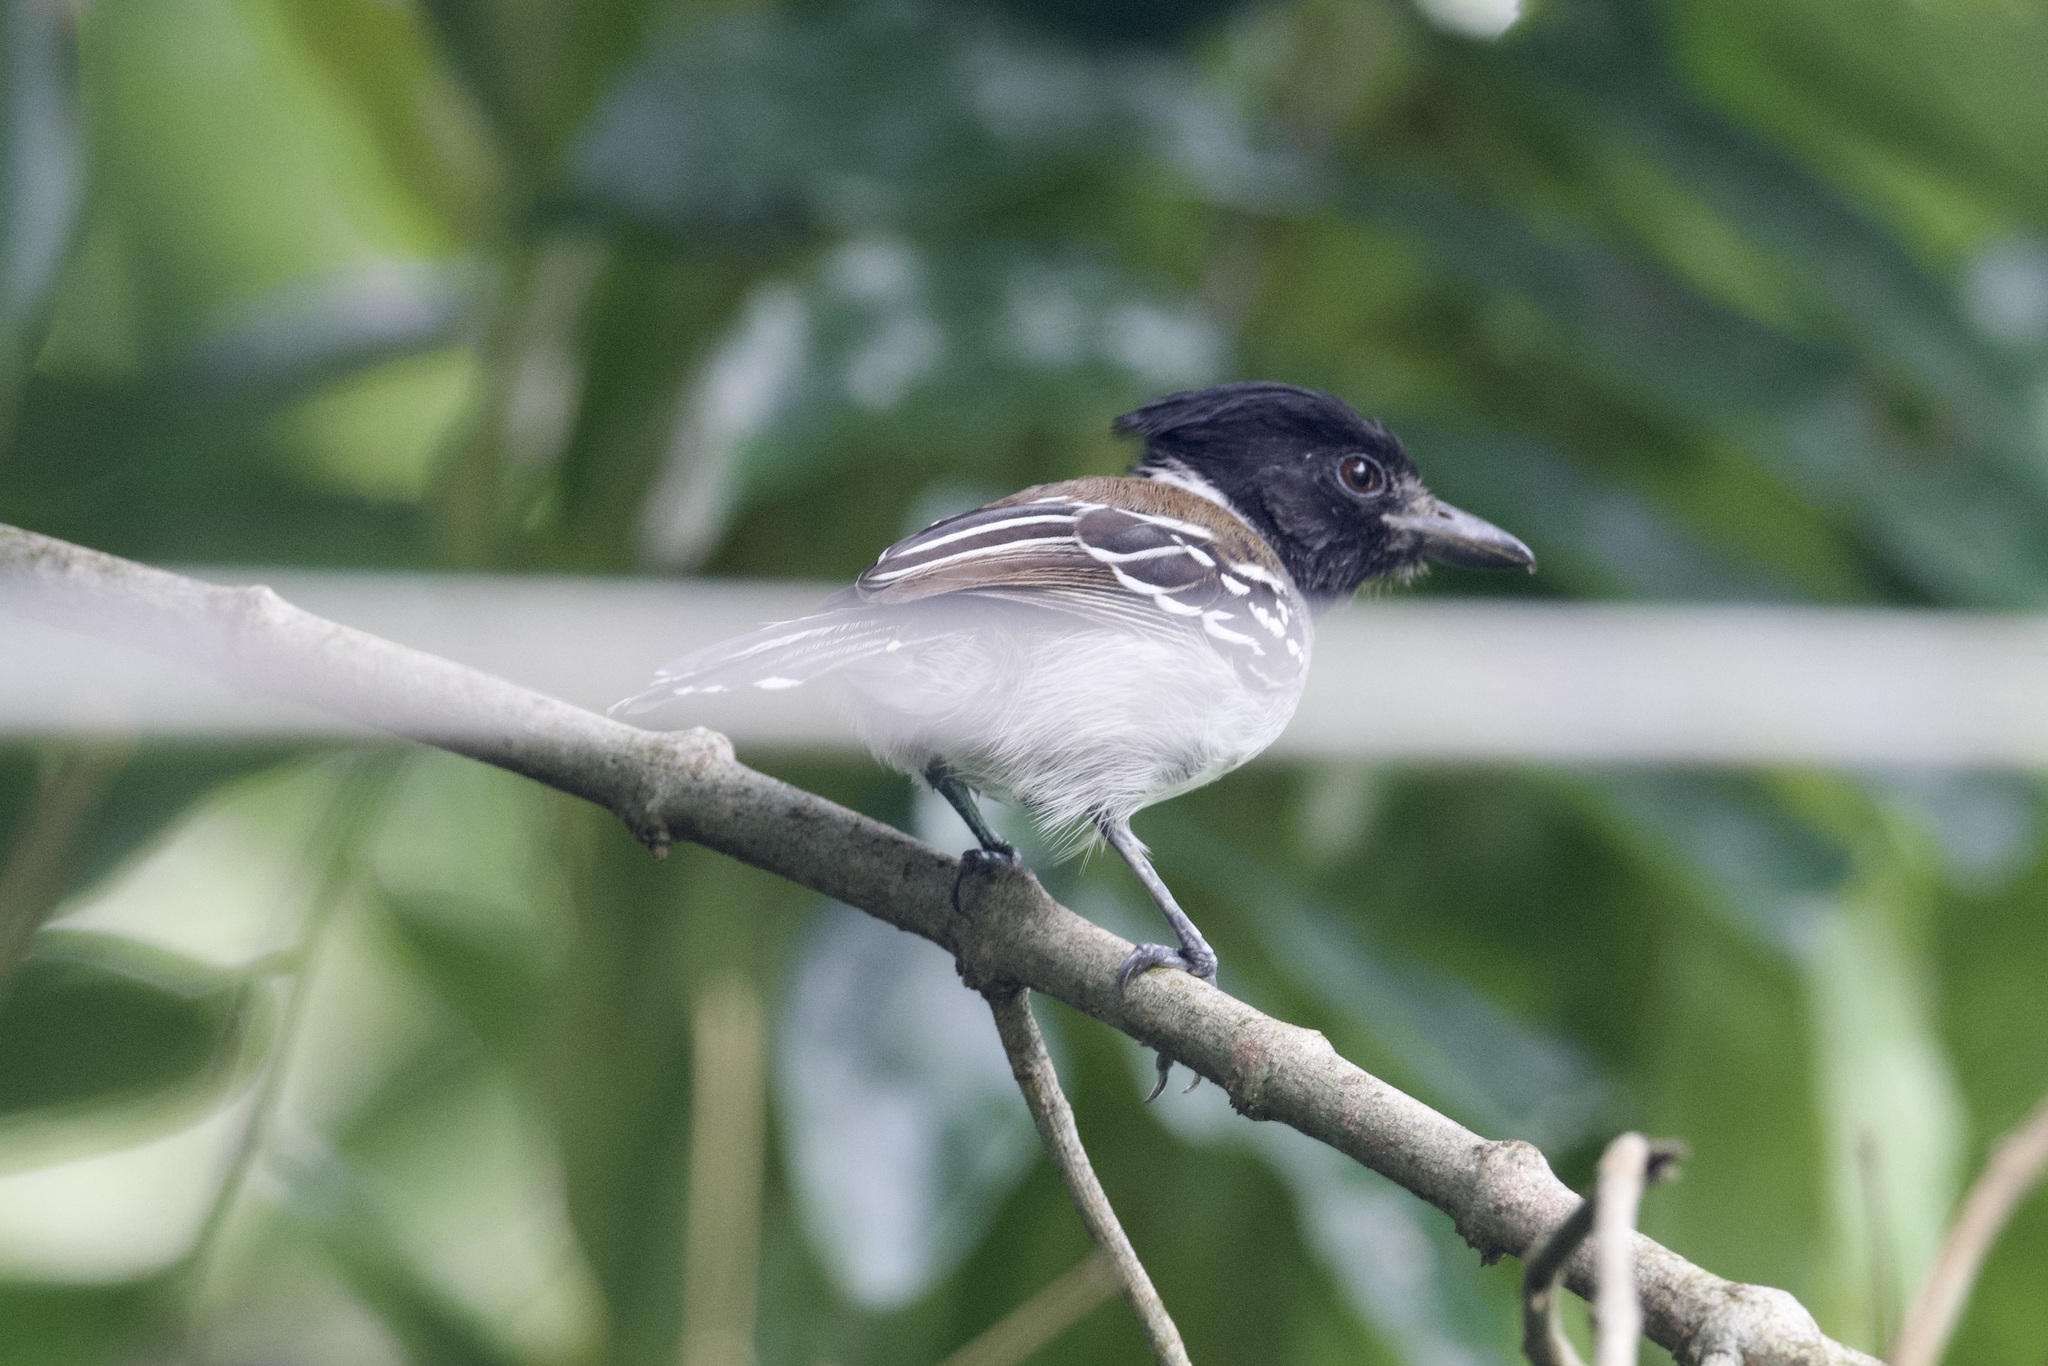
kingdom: Animalia
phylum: Chordata
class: Aves
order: Passeriformes
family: Thamnophilidae
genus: Sakesphorus
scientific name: Sakesphorus canadensis
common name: Black-crested antshrike
